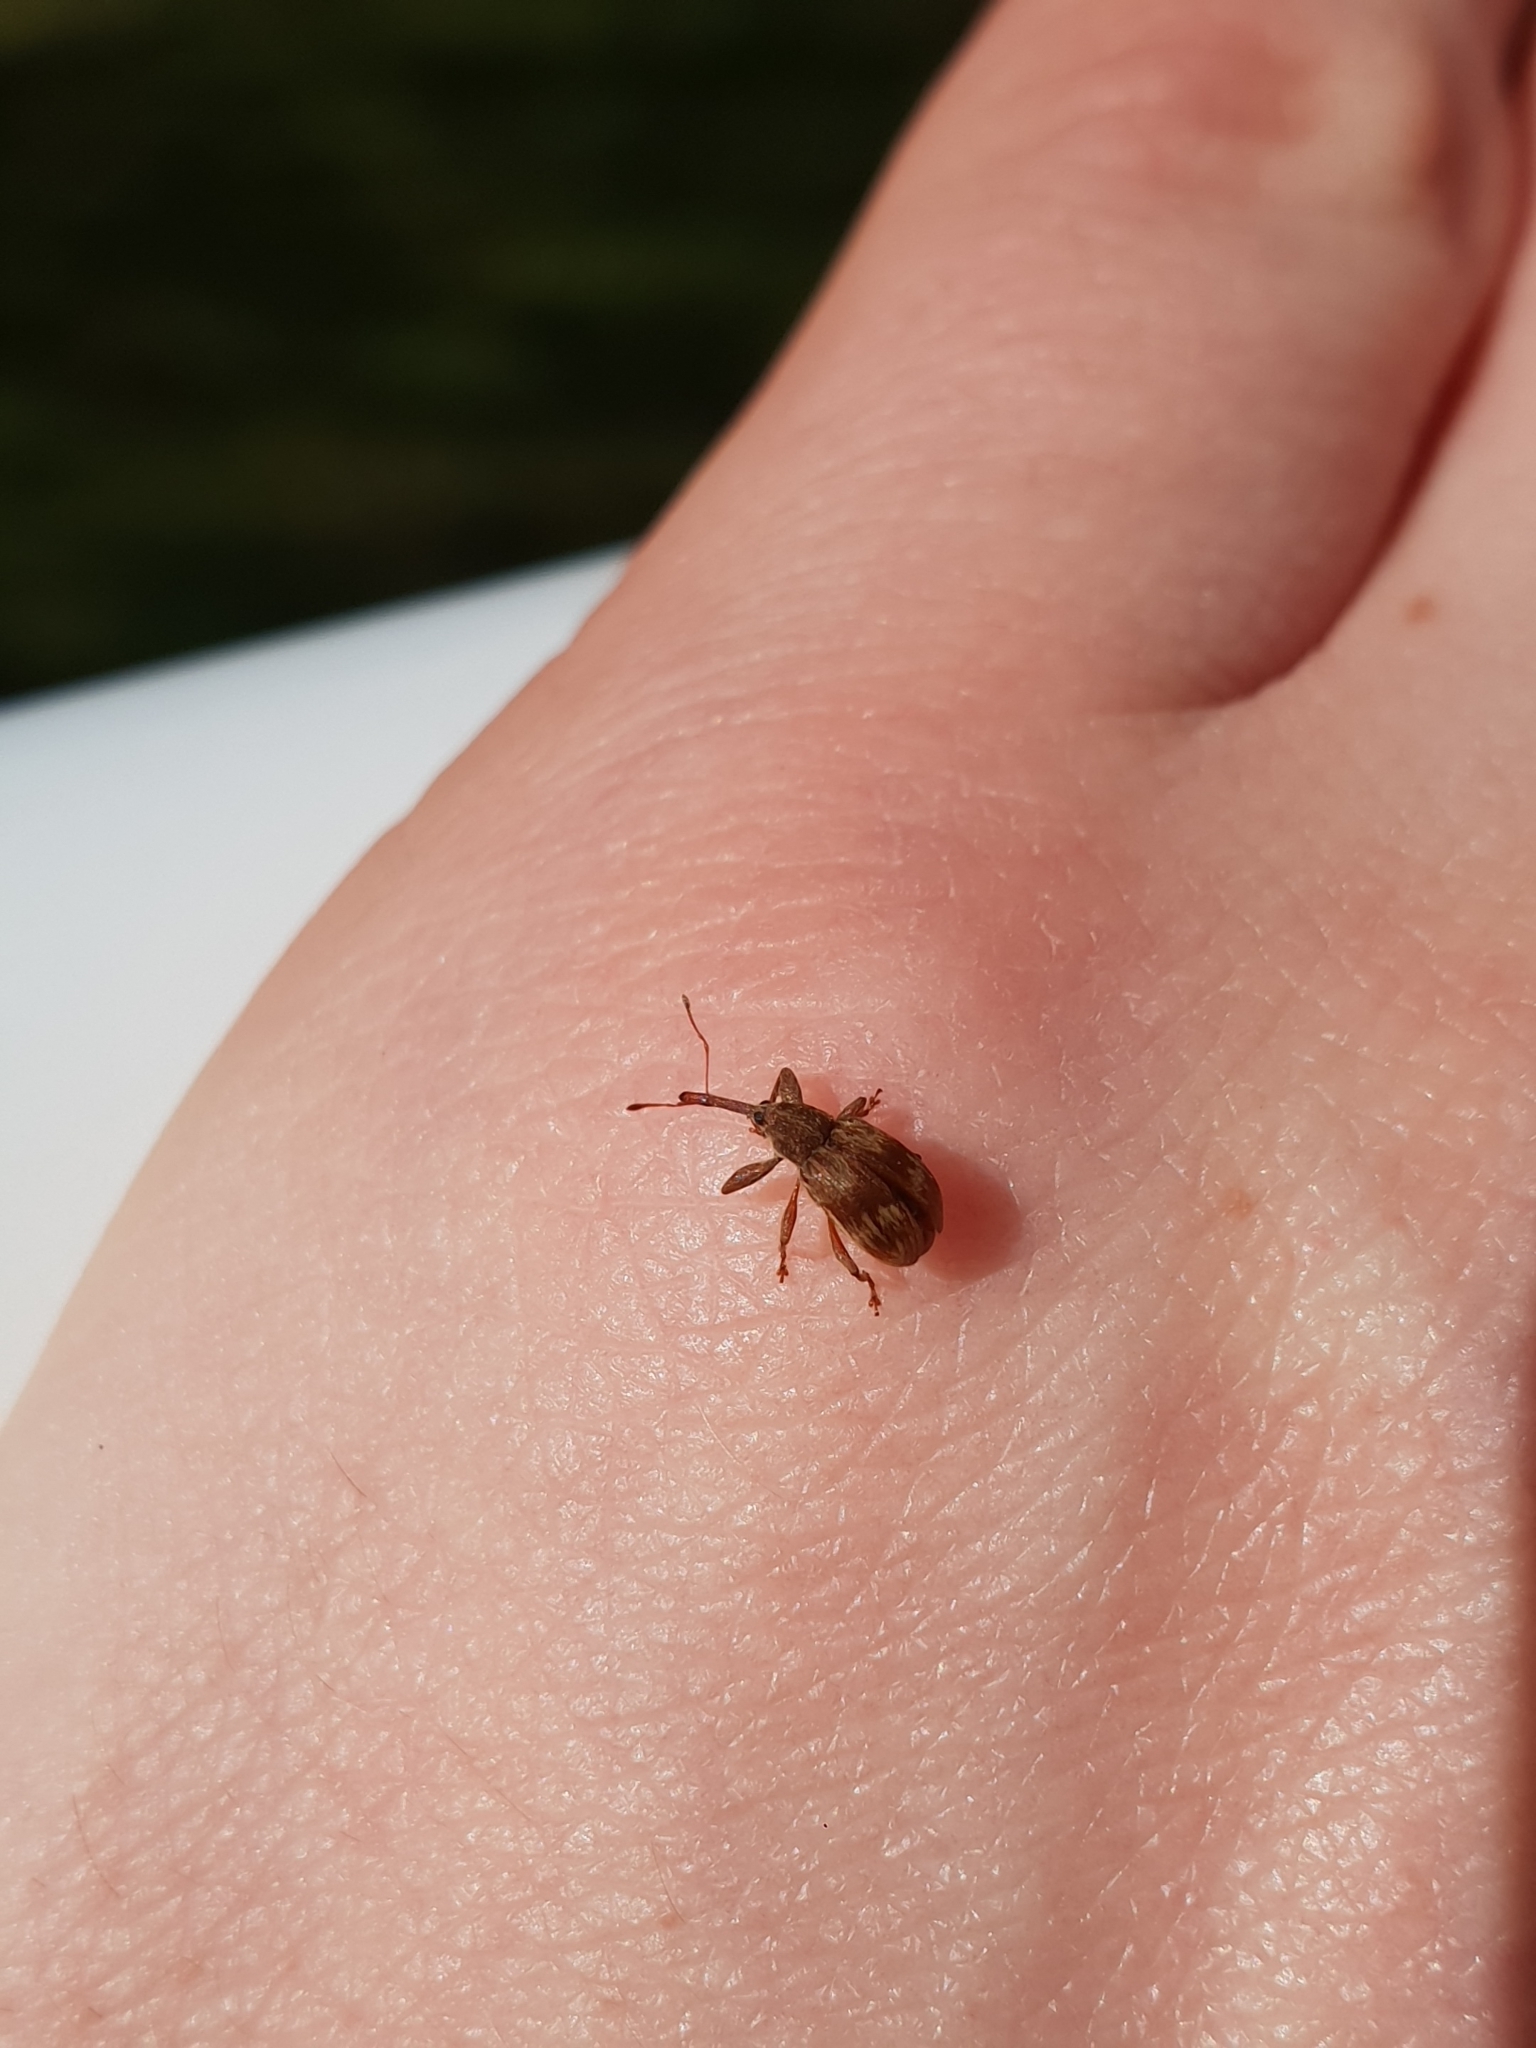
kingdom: Animalia
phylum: Arthropoda
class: Insecta
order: Coleoptera
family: Curculionidae
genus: Anthonomus
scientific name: Anthonomus rectirostris
